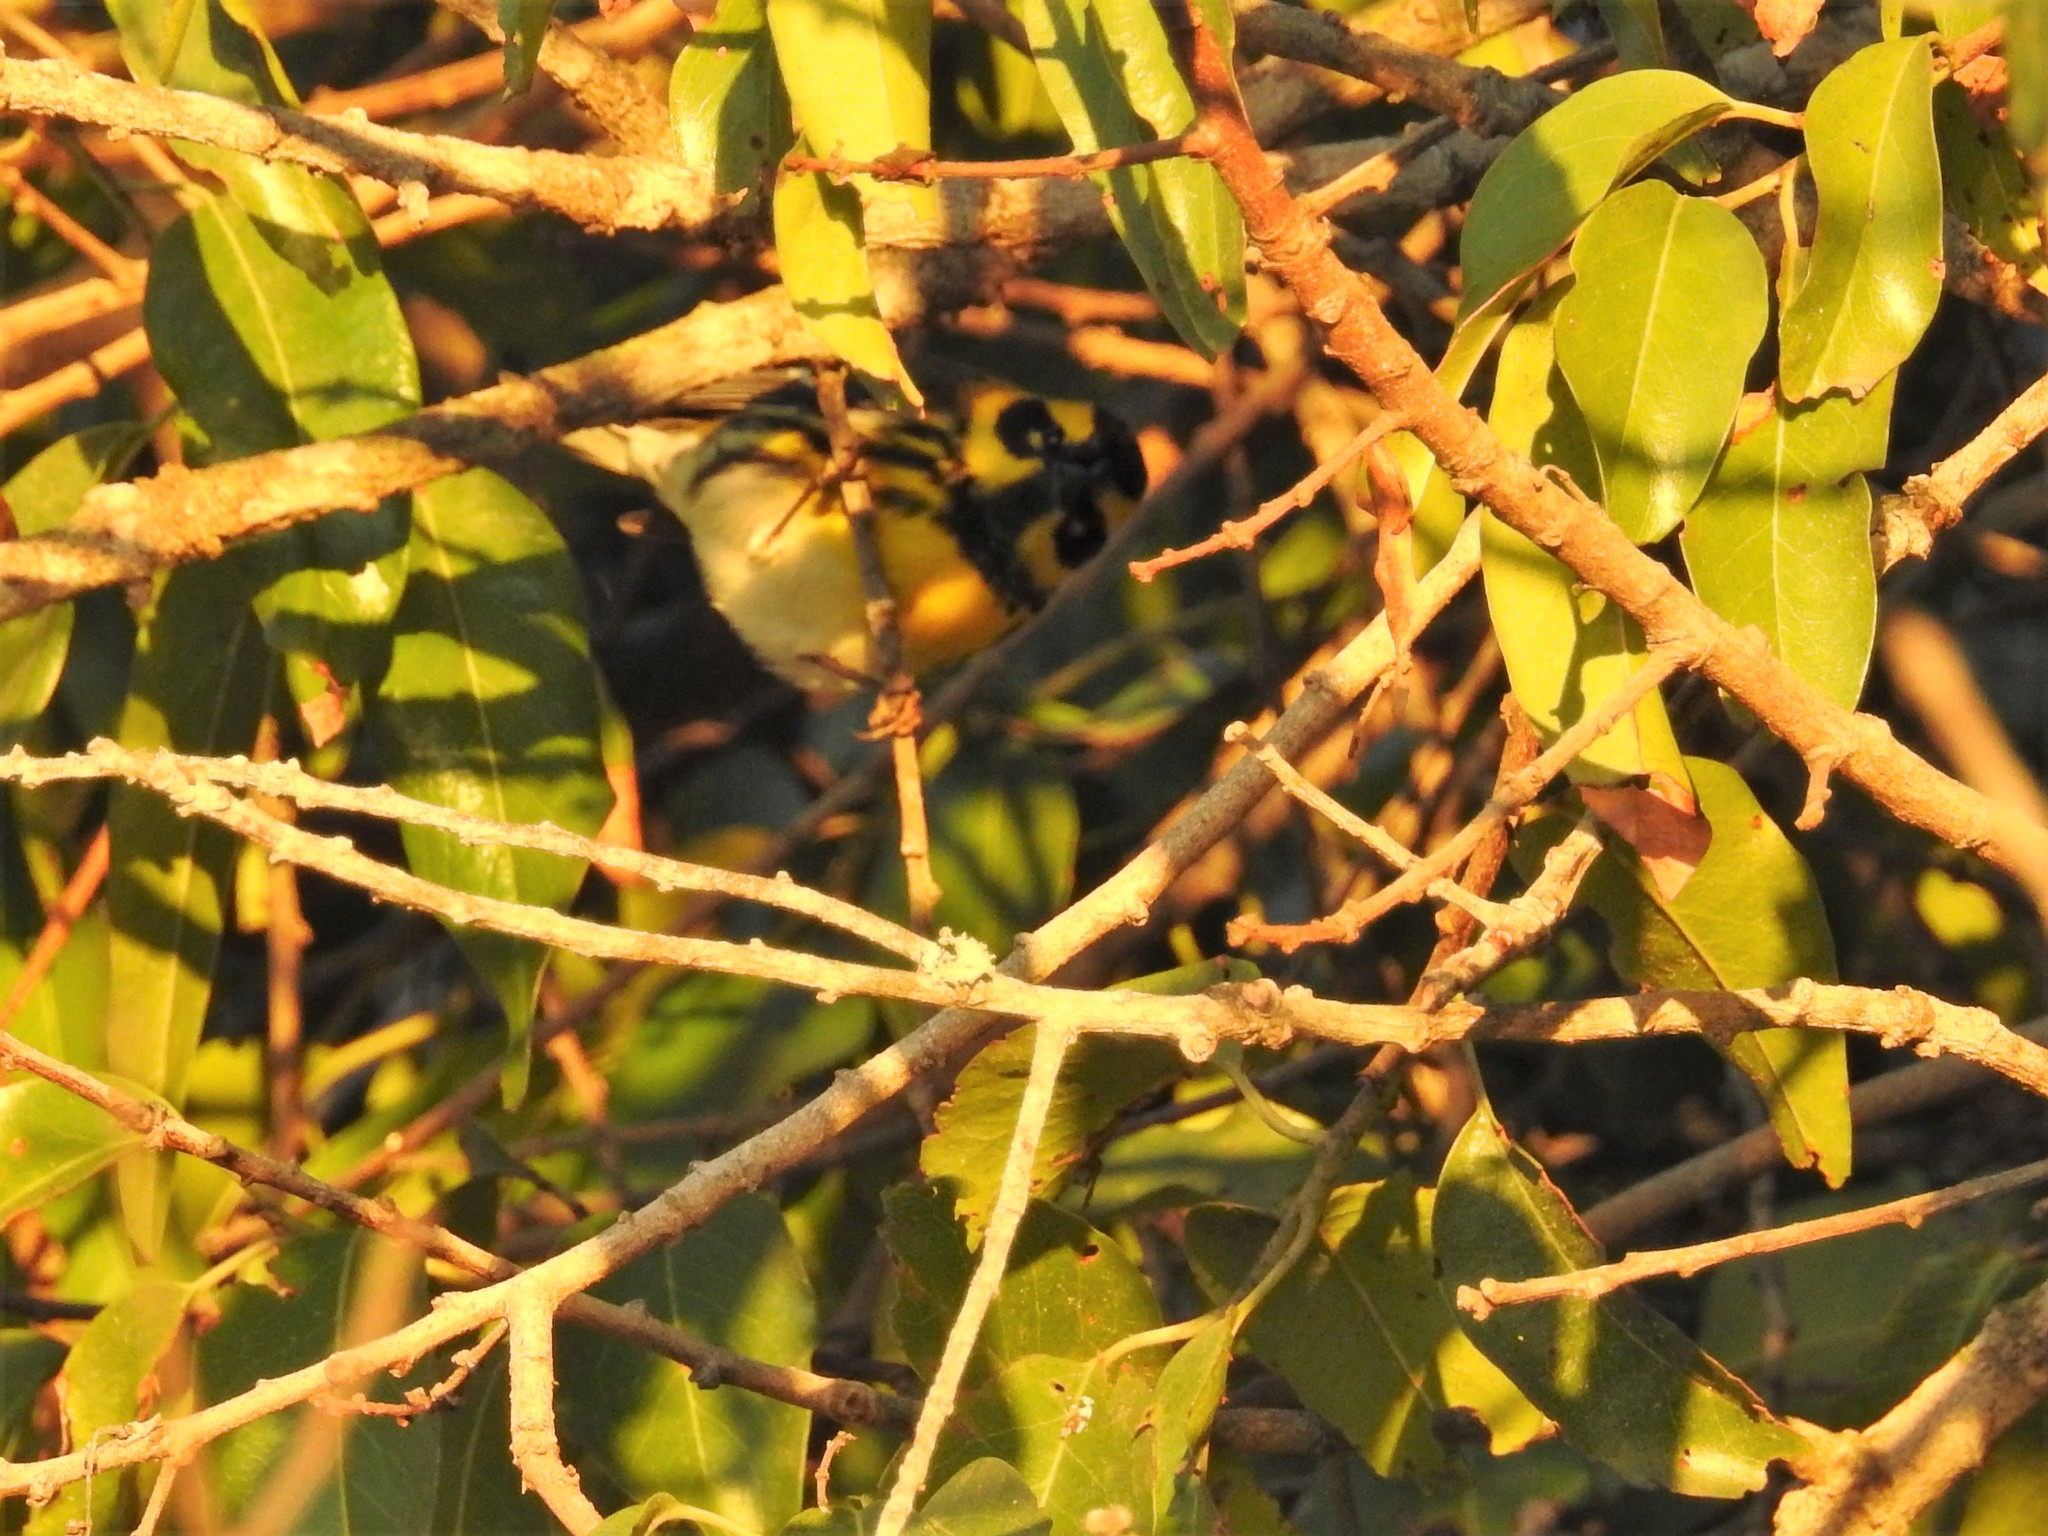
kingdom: Animalia
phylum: Chordata
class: Aves
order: Passeriformes
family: Parulidae
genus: Setophaga
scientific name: Setophaga townsendi
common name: Townsend's warbler
